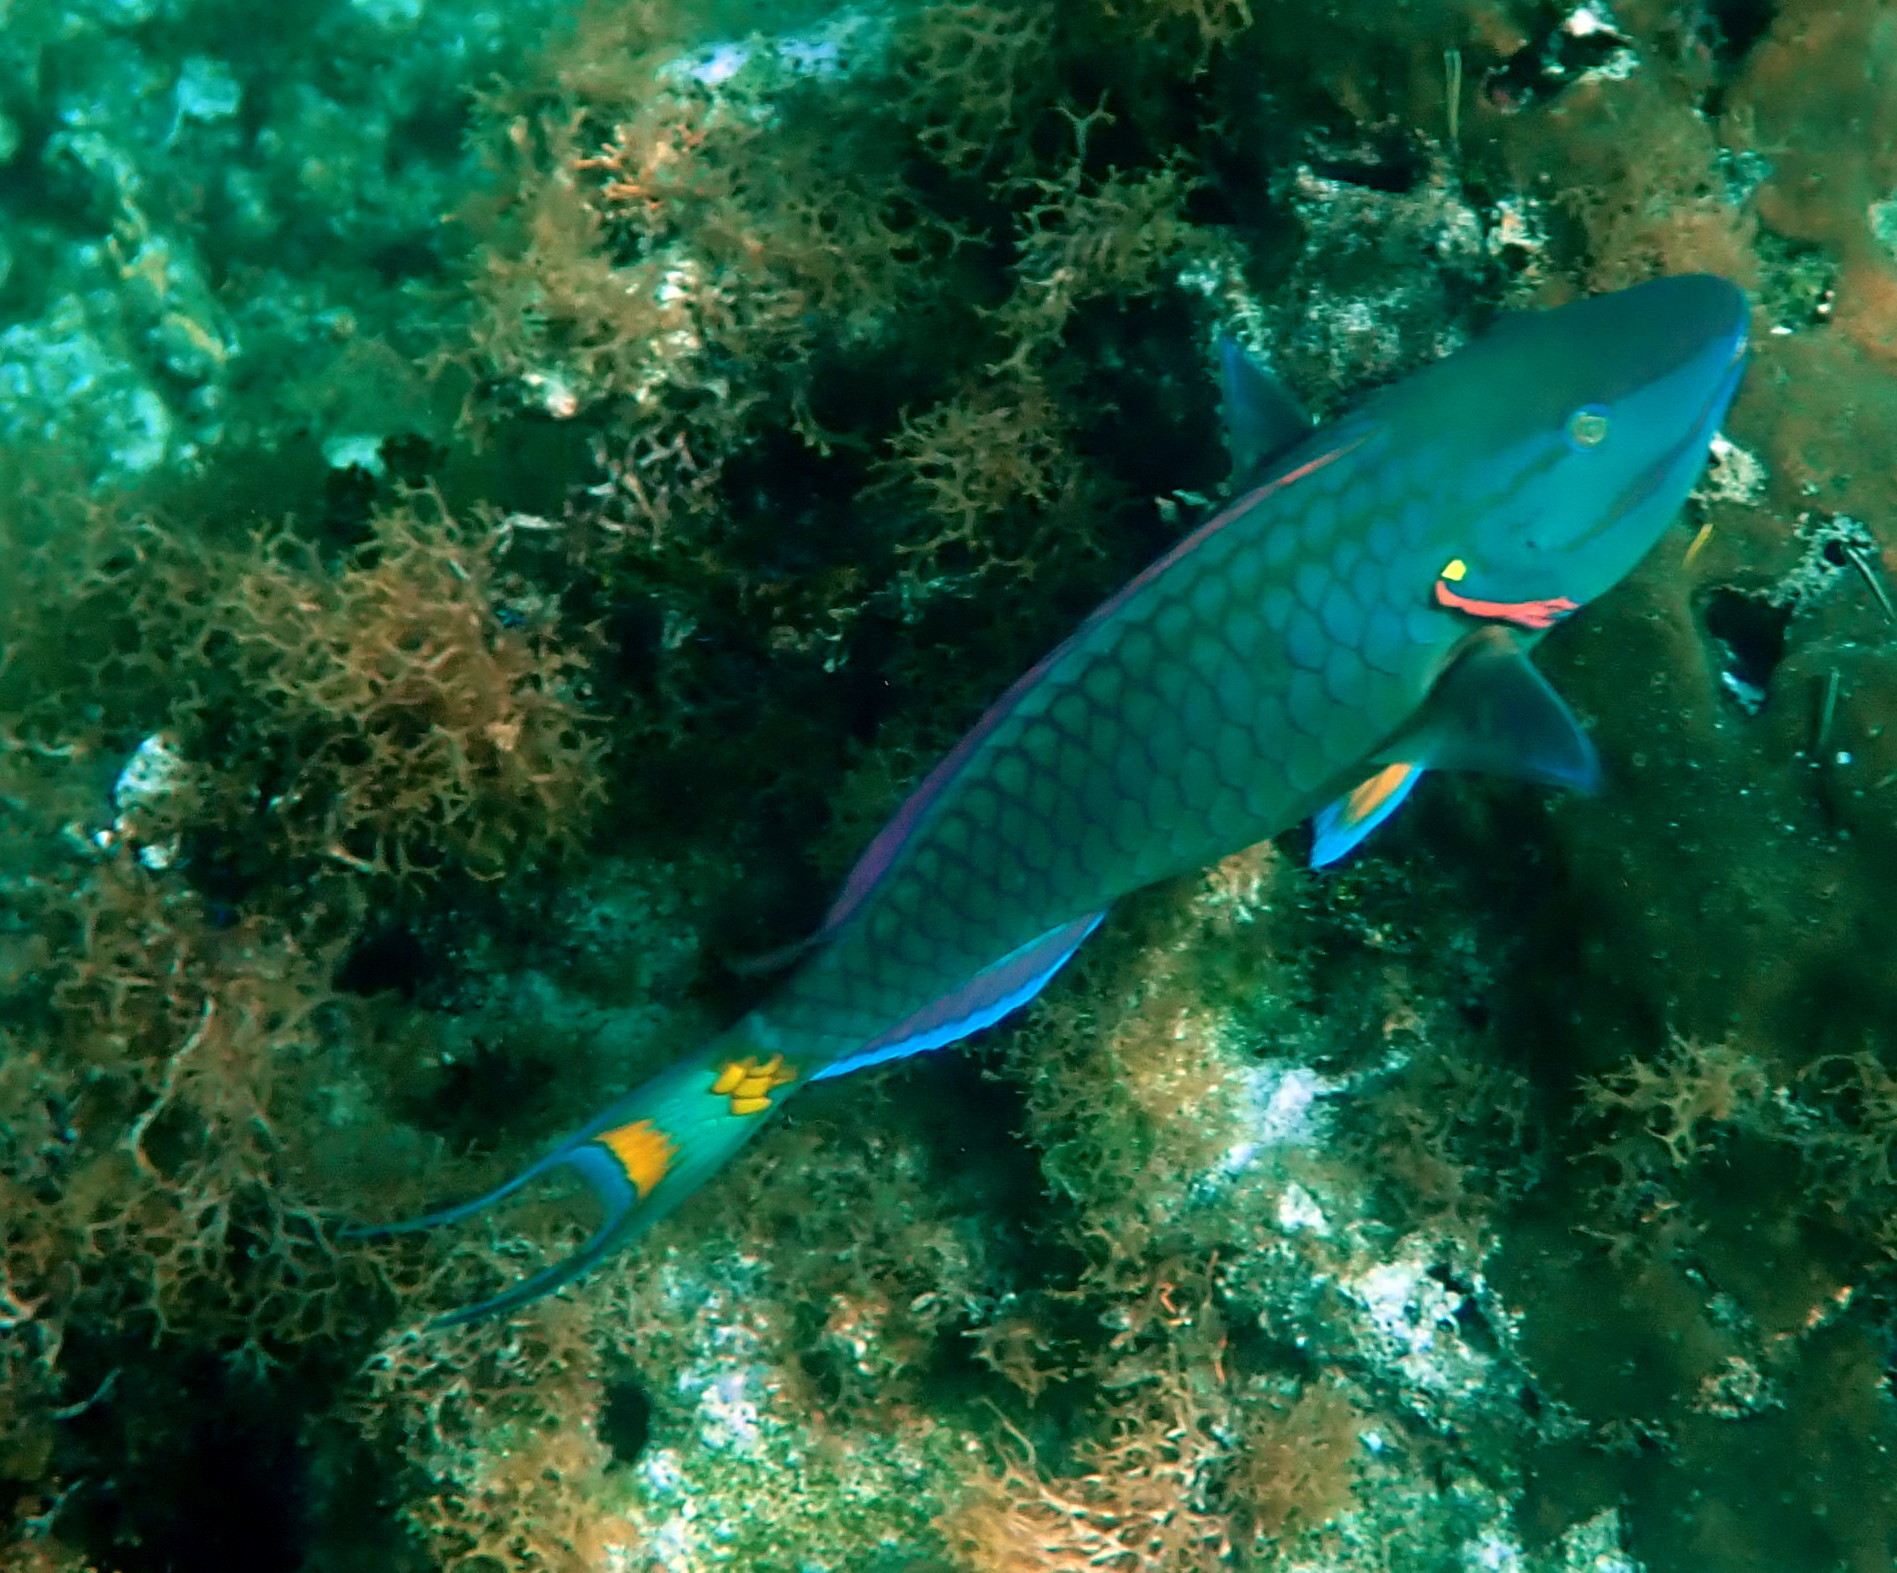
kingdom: Animalia
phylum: Chordata
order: Perciformes
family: Scaridae
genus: Sparisoma
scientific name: Sparisoma viride
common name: Stoplight parrotfish
